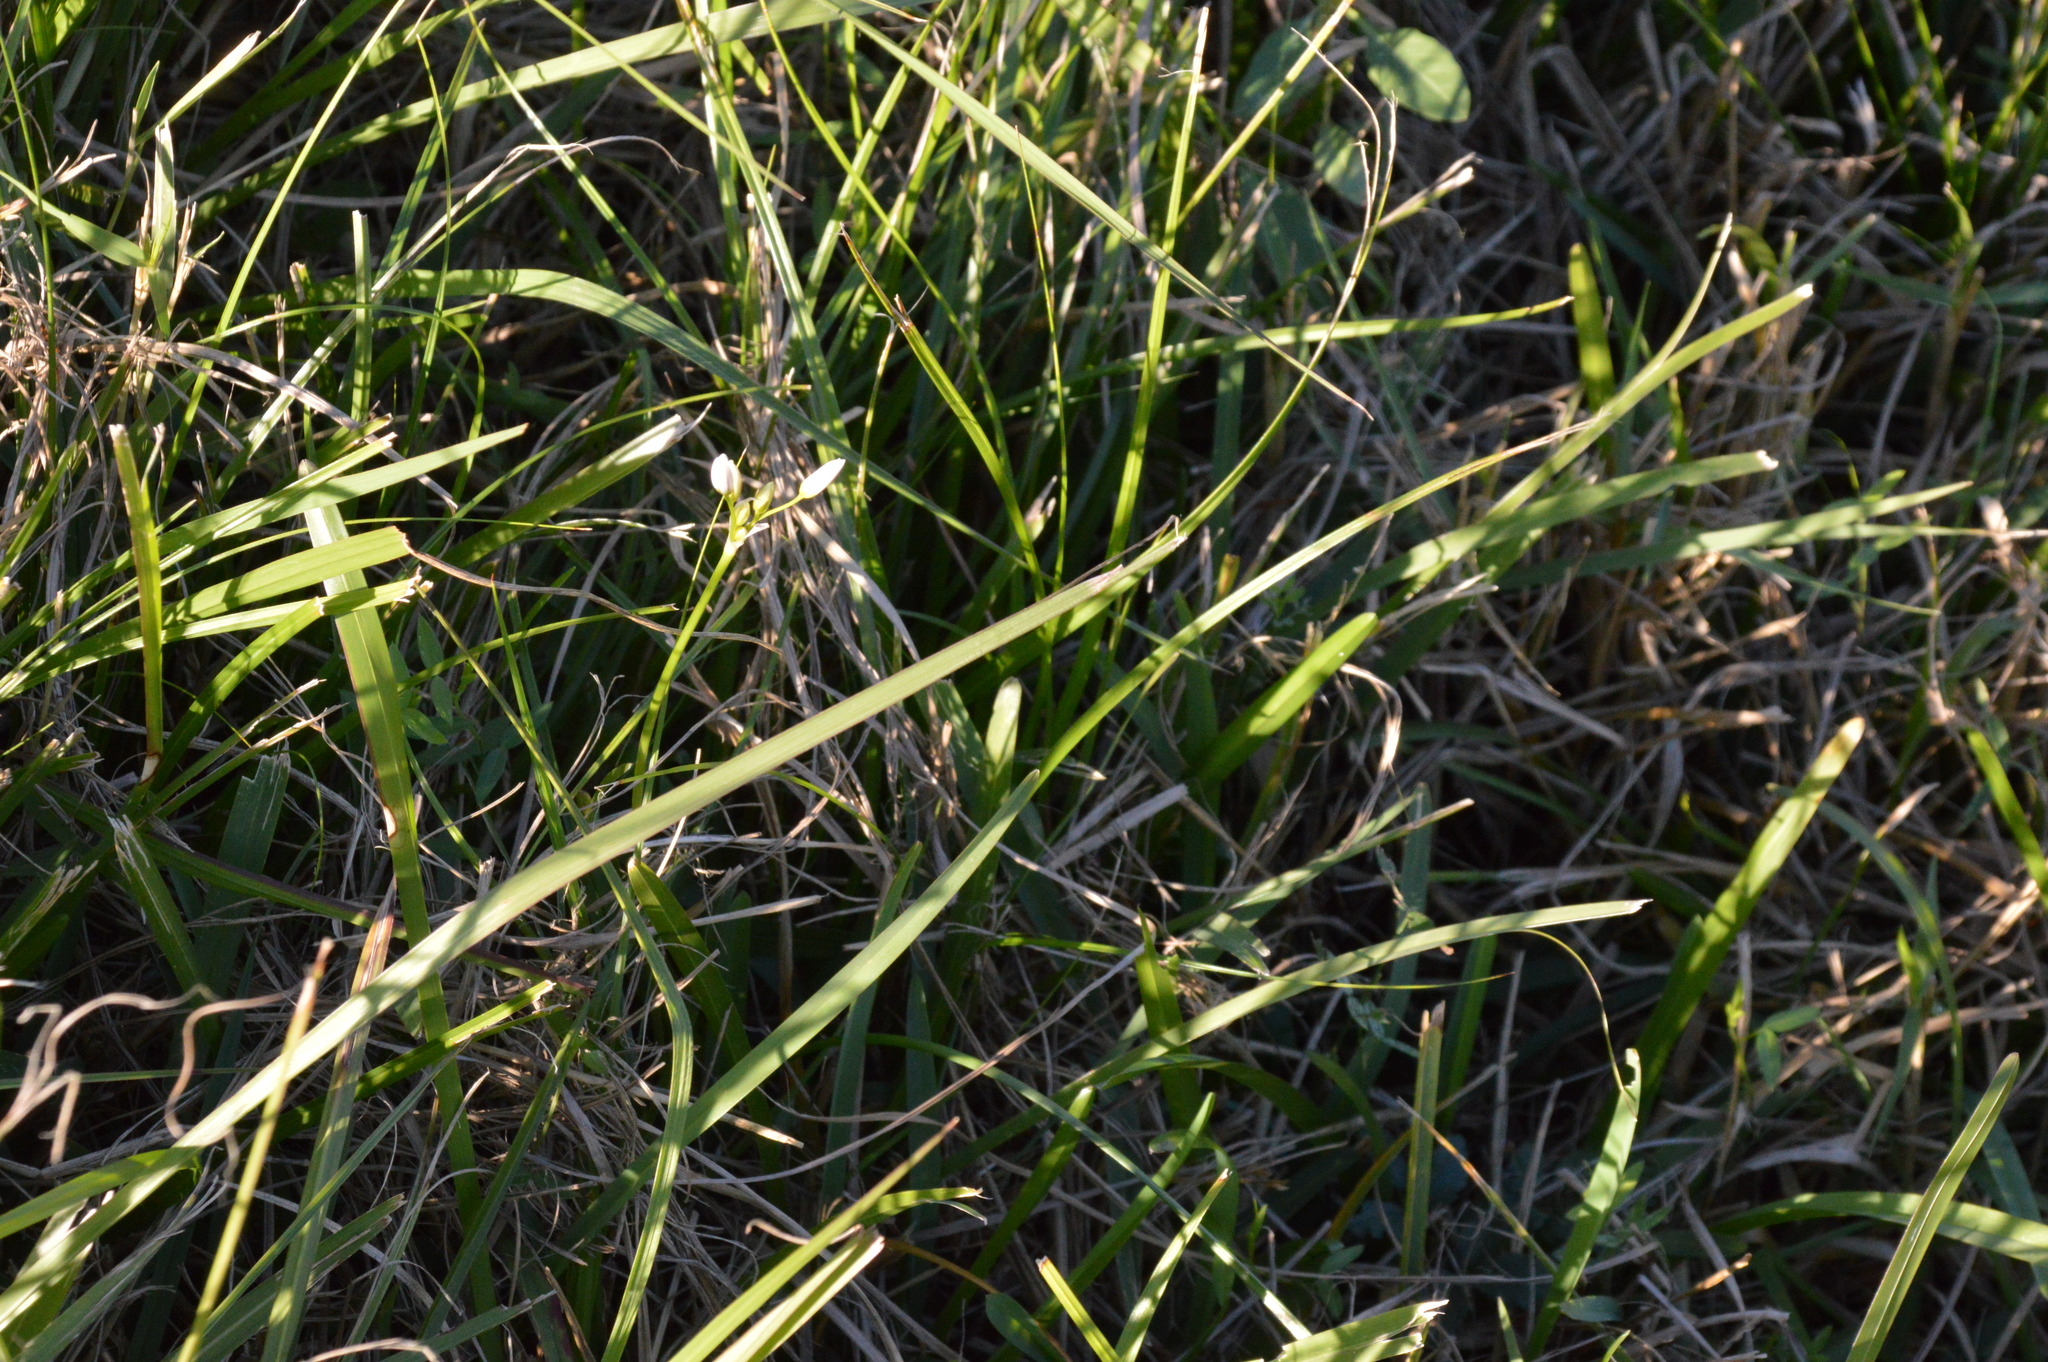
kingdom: Plantae
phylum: Tracheophyta
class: Liliopsida
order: Asparagales
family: Amaryllidaceae
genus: Nothoscordum
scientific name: Nothoscordum bivalve
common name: Crow-poison
